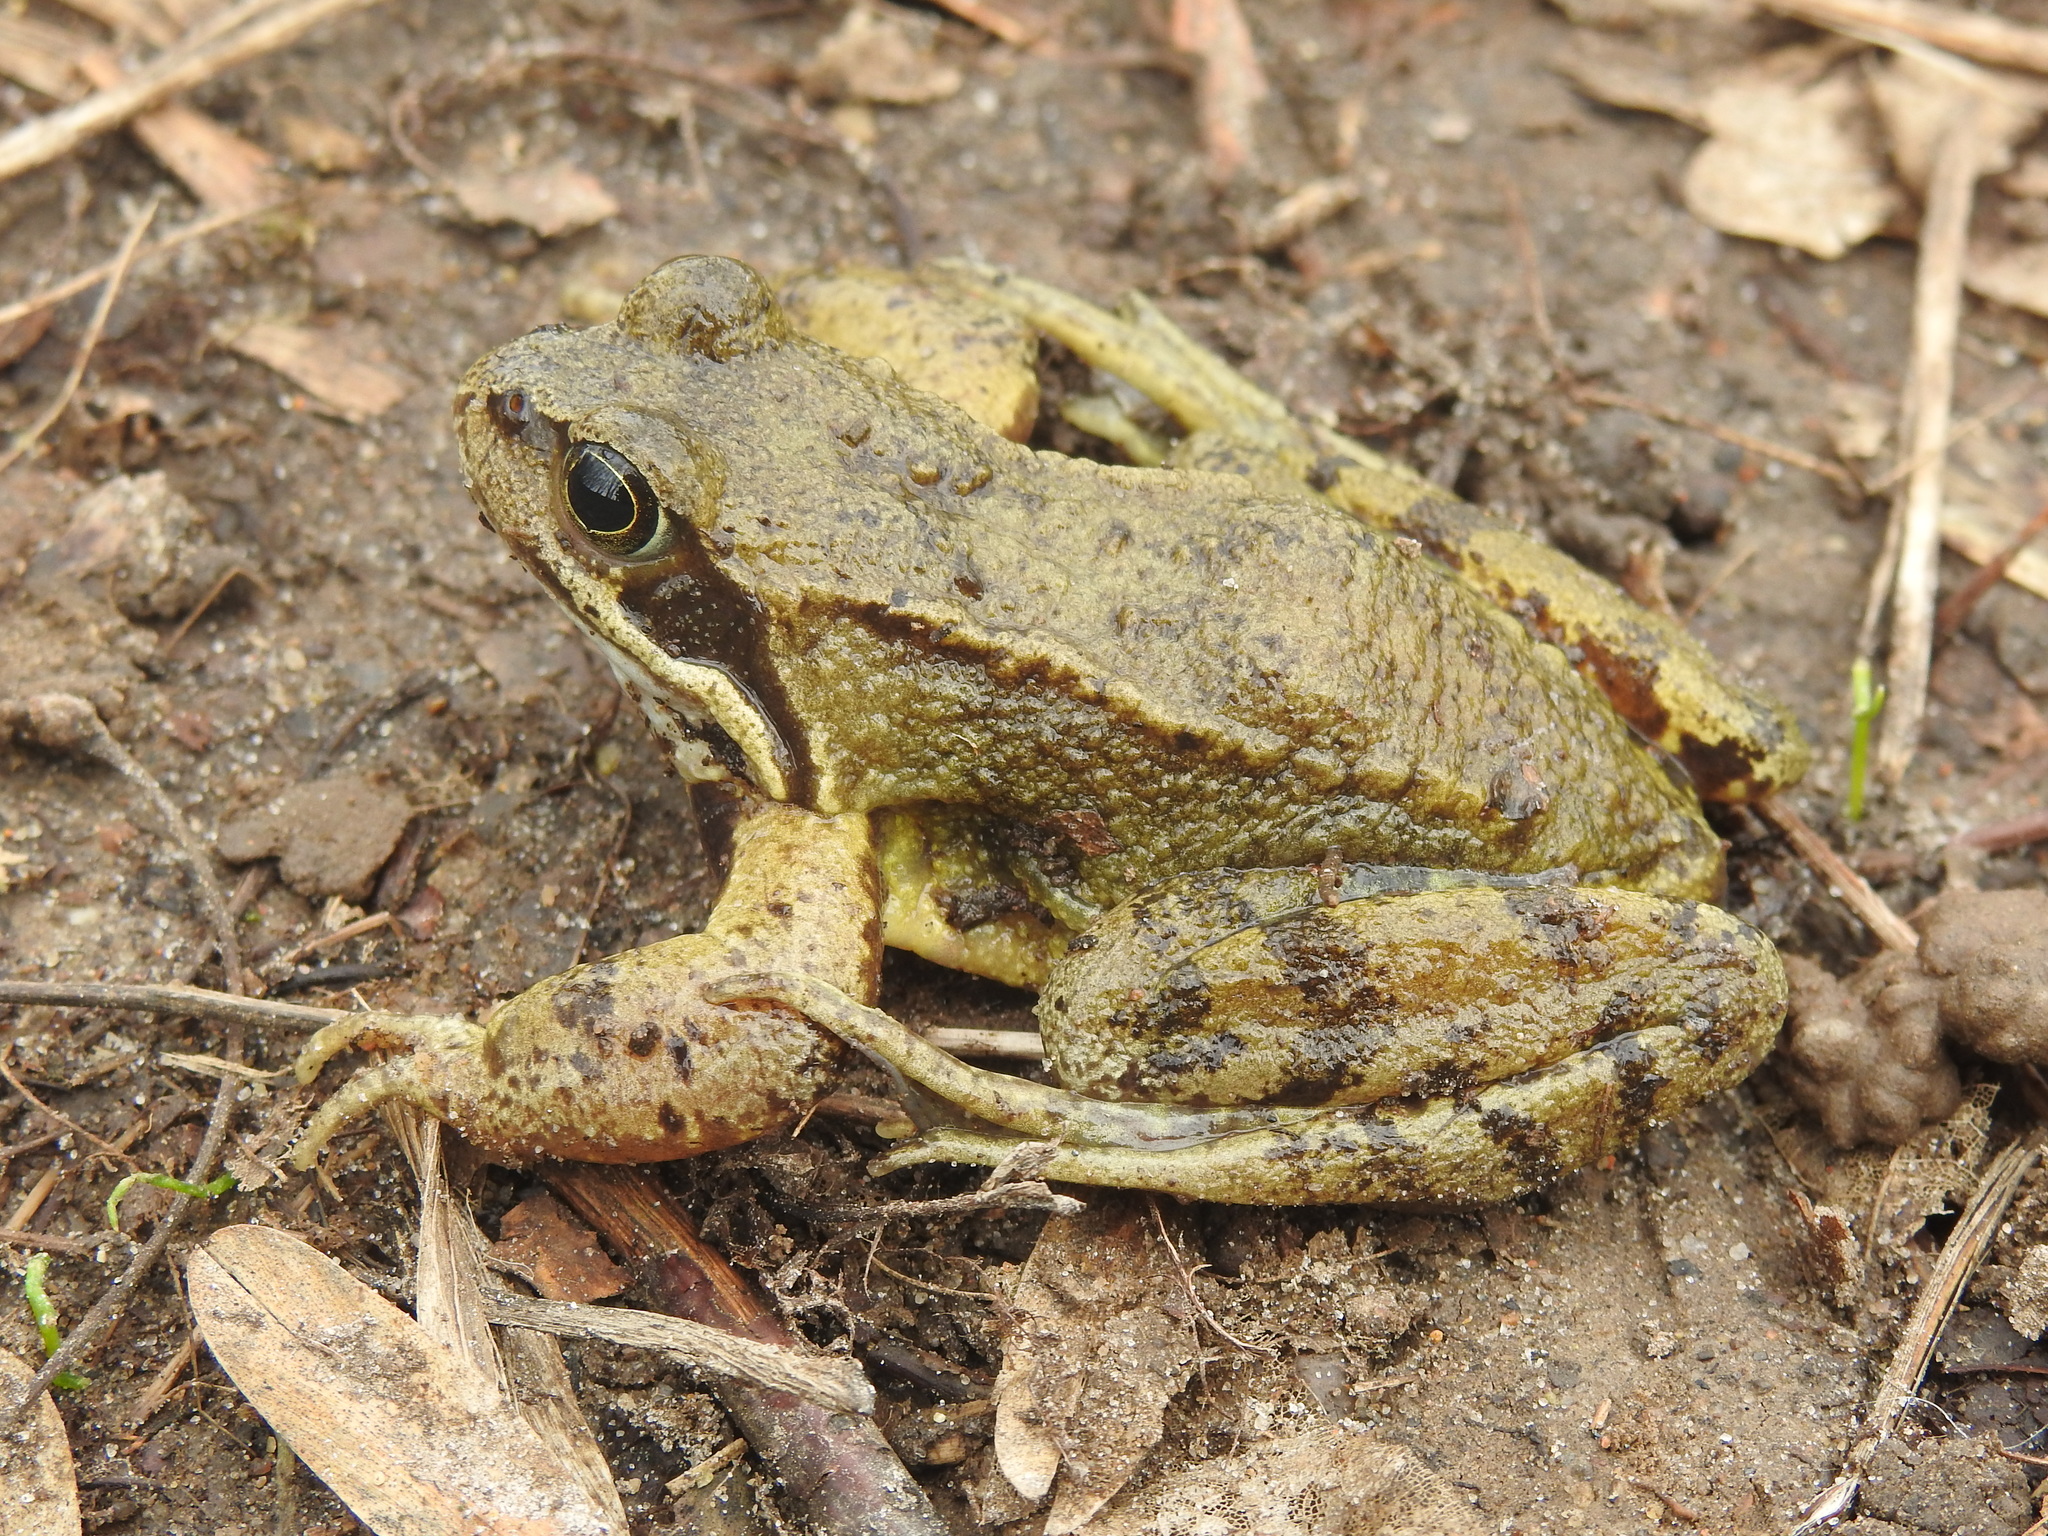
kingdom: Animalia
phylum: Chordata
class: Amphibia
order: Anura
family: Ranidae
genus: Rana
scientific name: Rana temporaria
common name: Common frog
